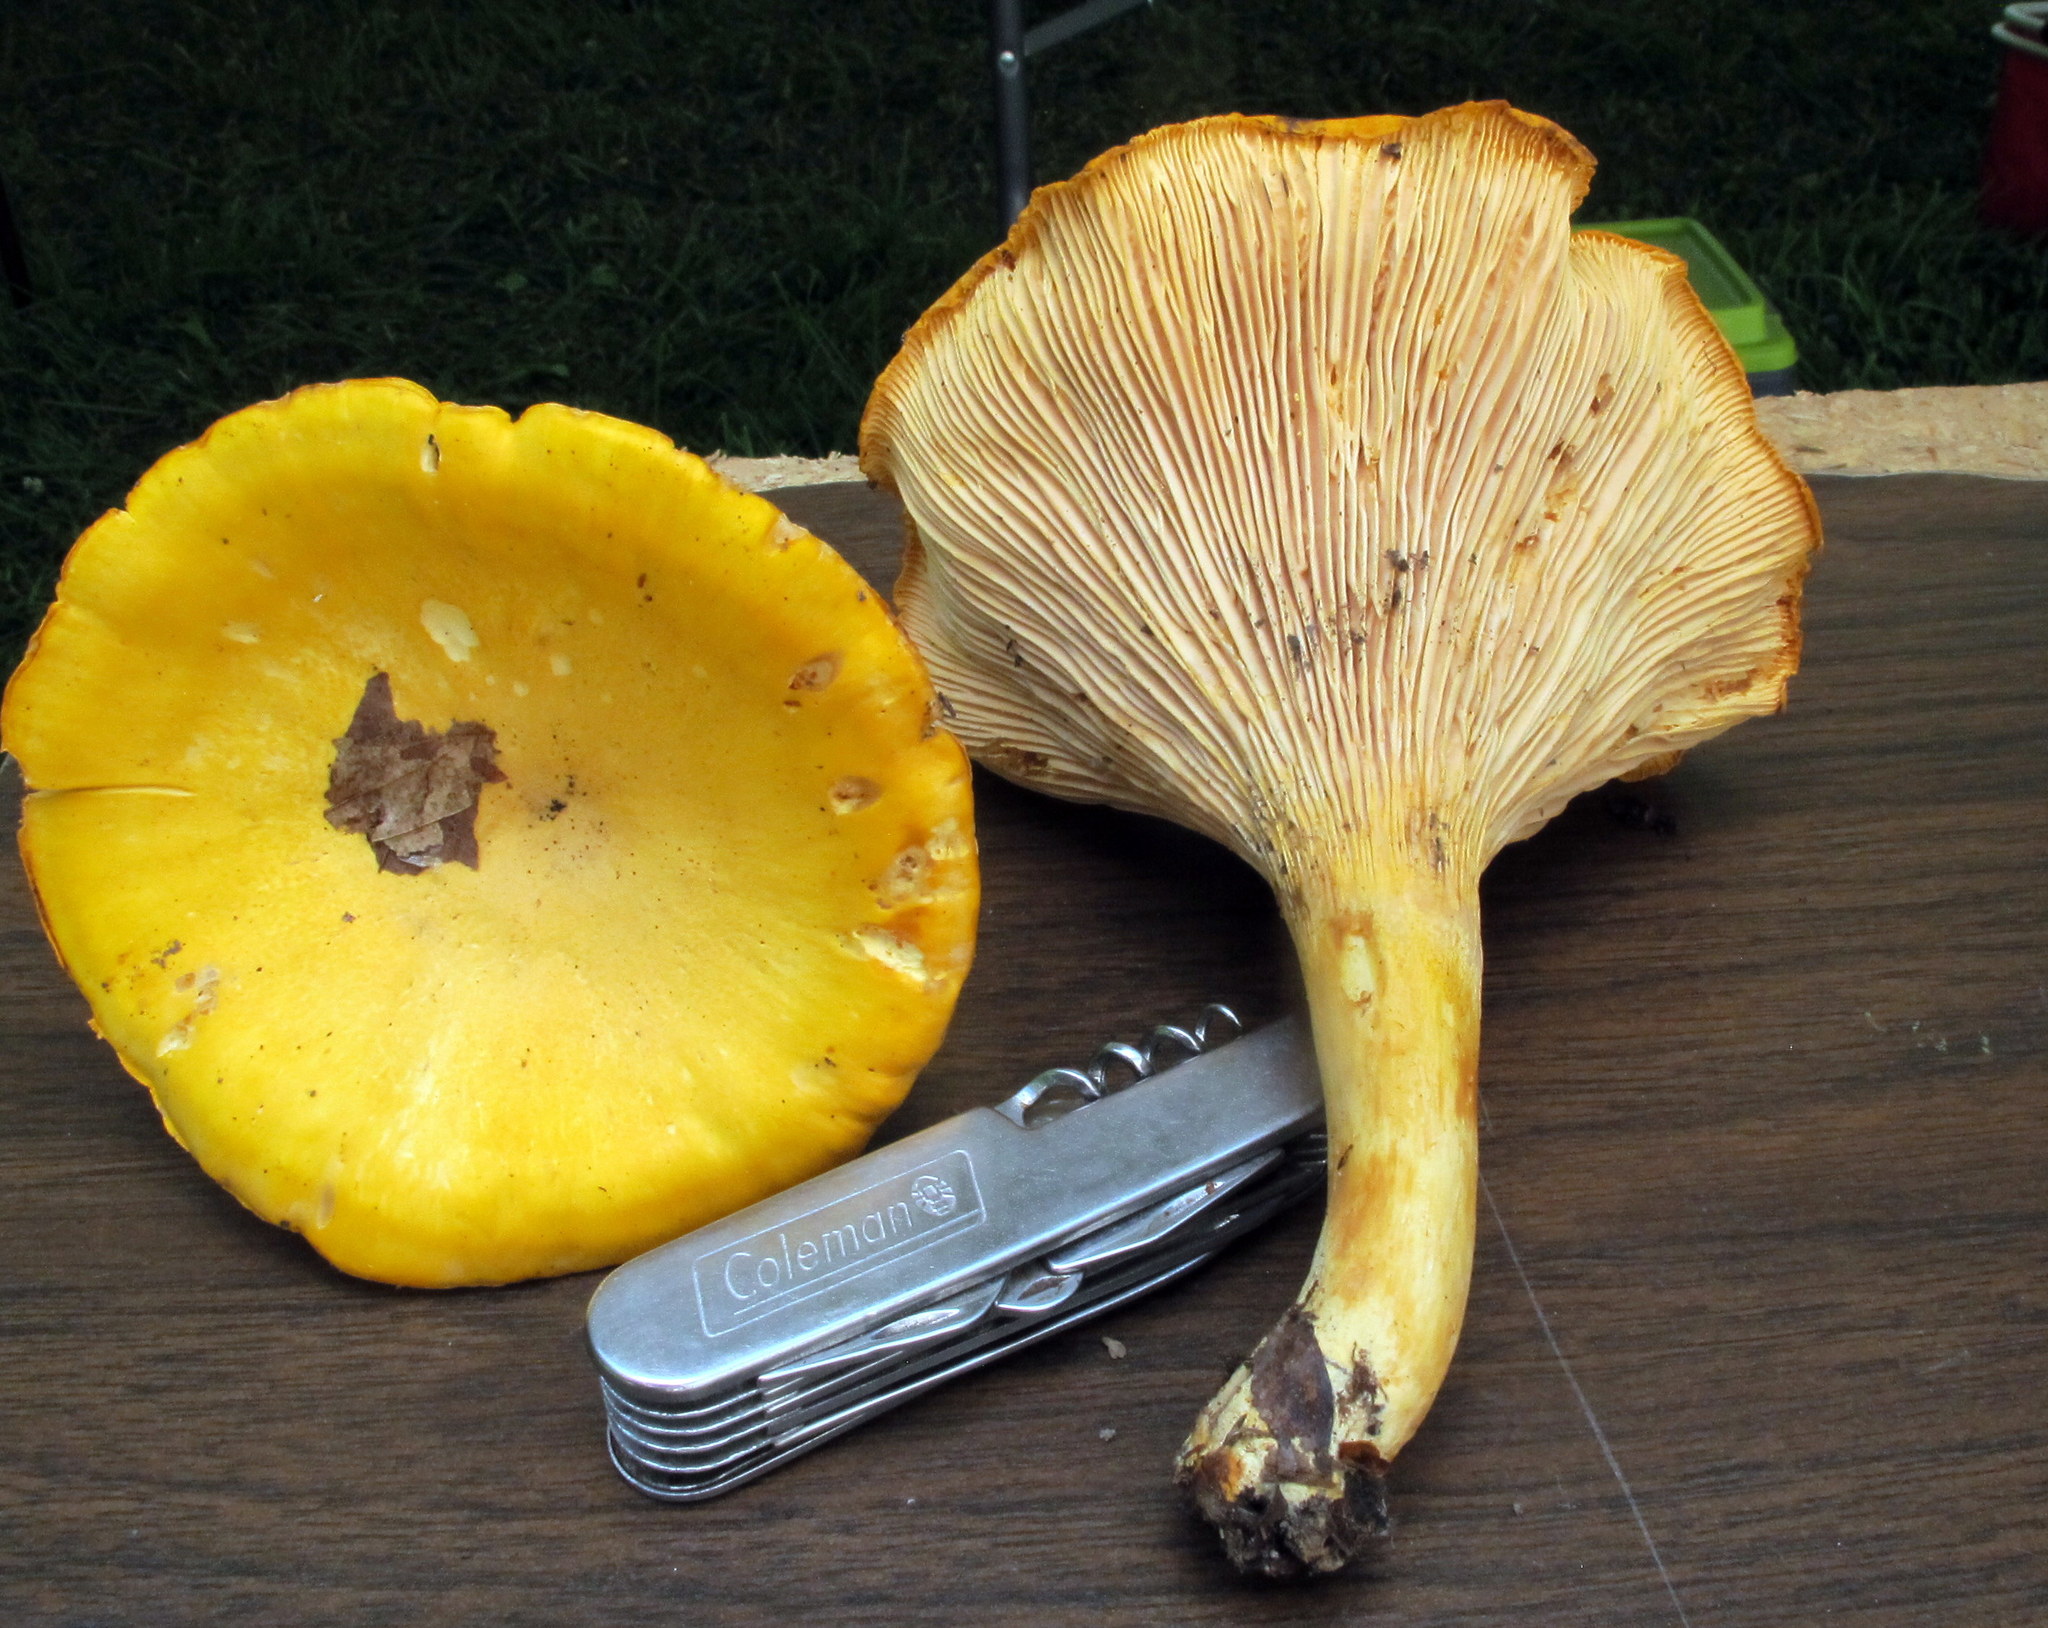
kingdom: Fungi
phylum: Basidiomycota
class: Agaricomycetes
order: Cantharellales
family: Hydnaceae
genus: Cantharellus
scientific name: Cantharellus phasmatis
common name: Ghost chanterelle
